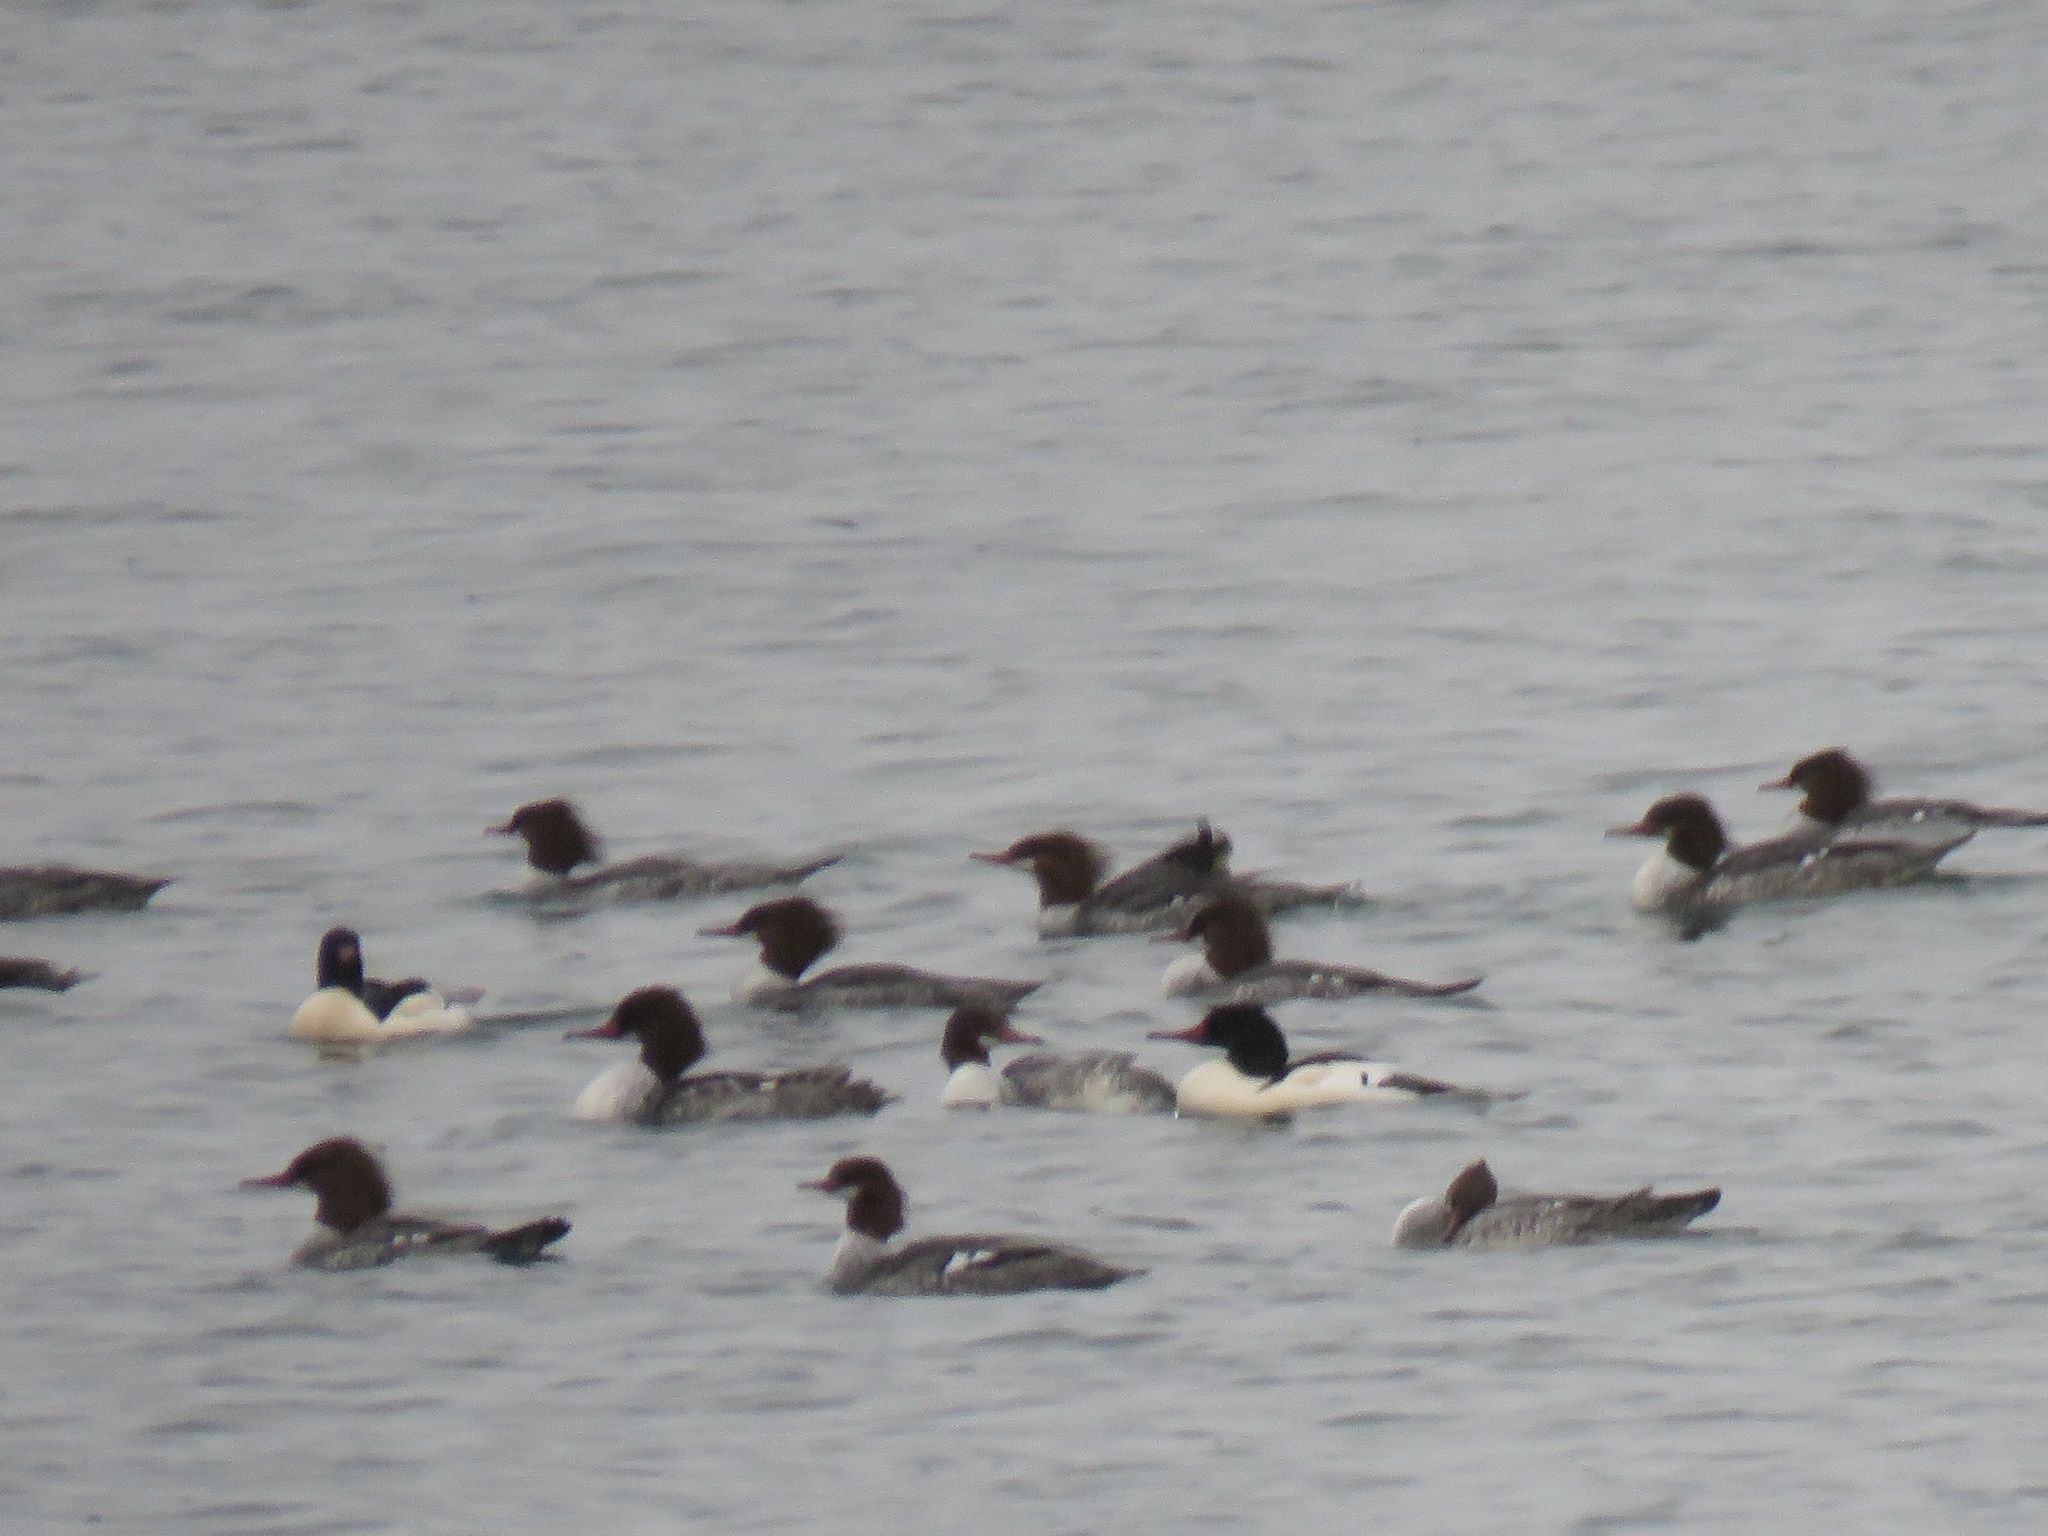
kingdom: Animalia
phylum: Chordata
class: Aves
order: Anseriformes
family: Anatidae
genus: Mergus
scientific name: Mergus merganser
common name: Common merganser
